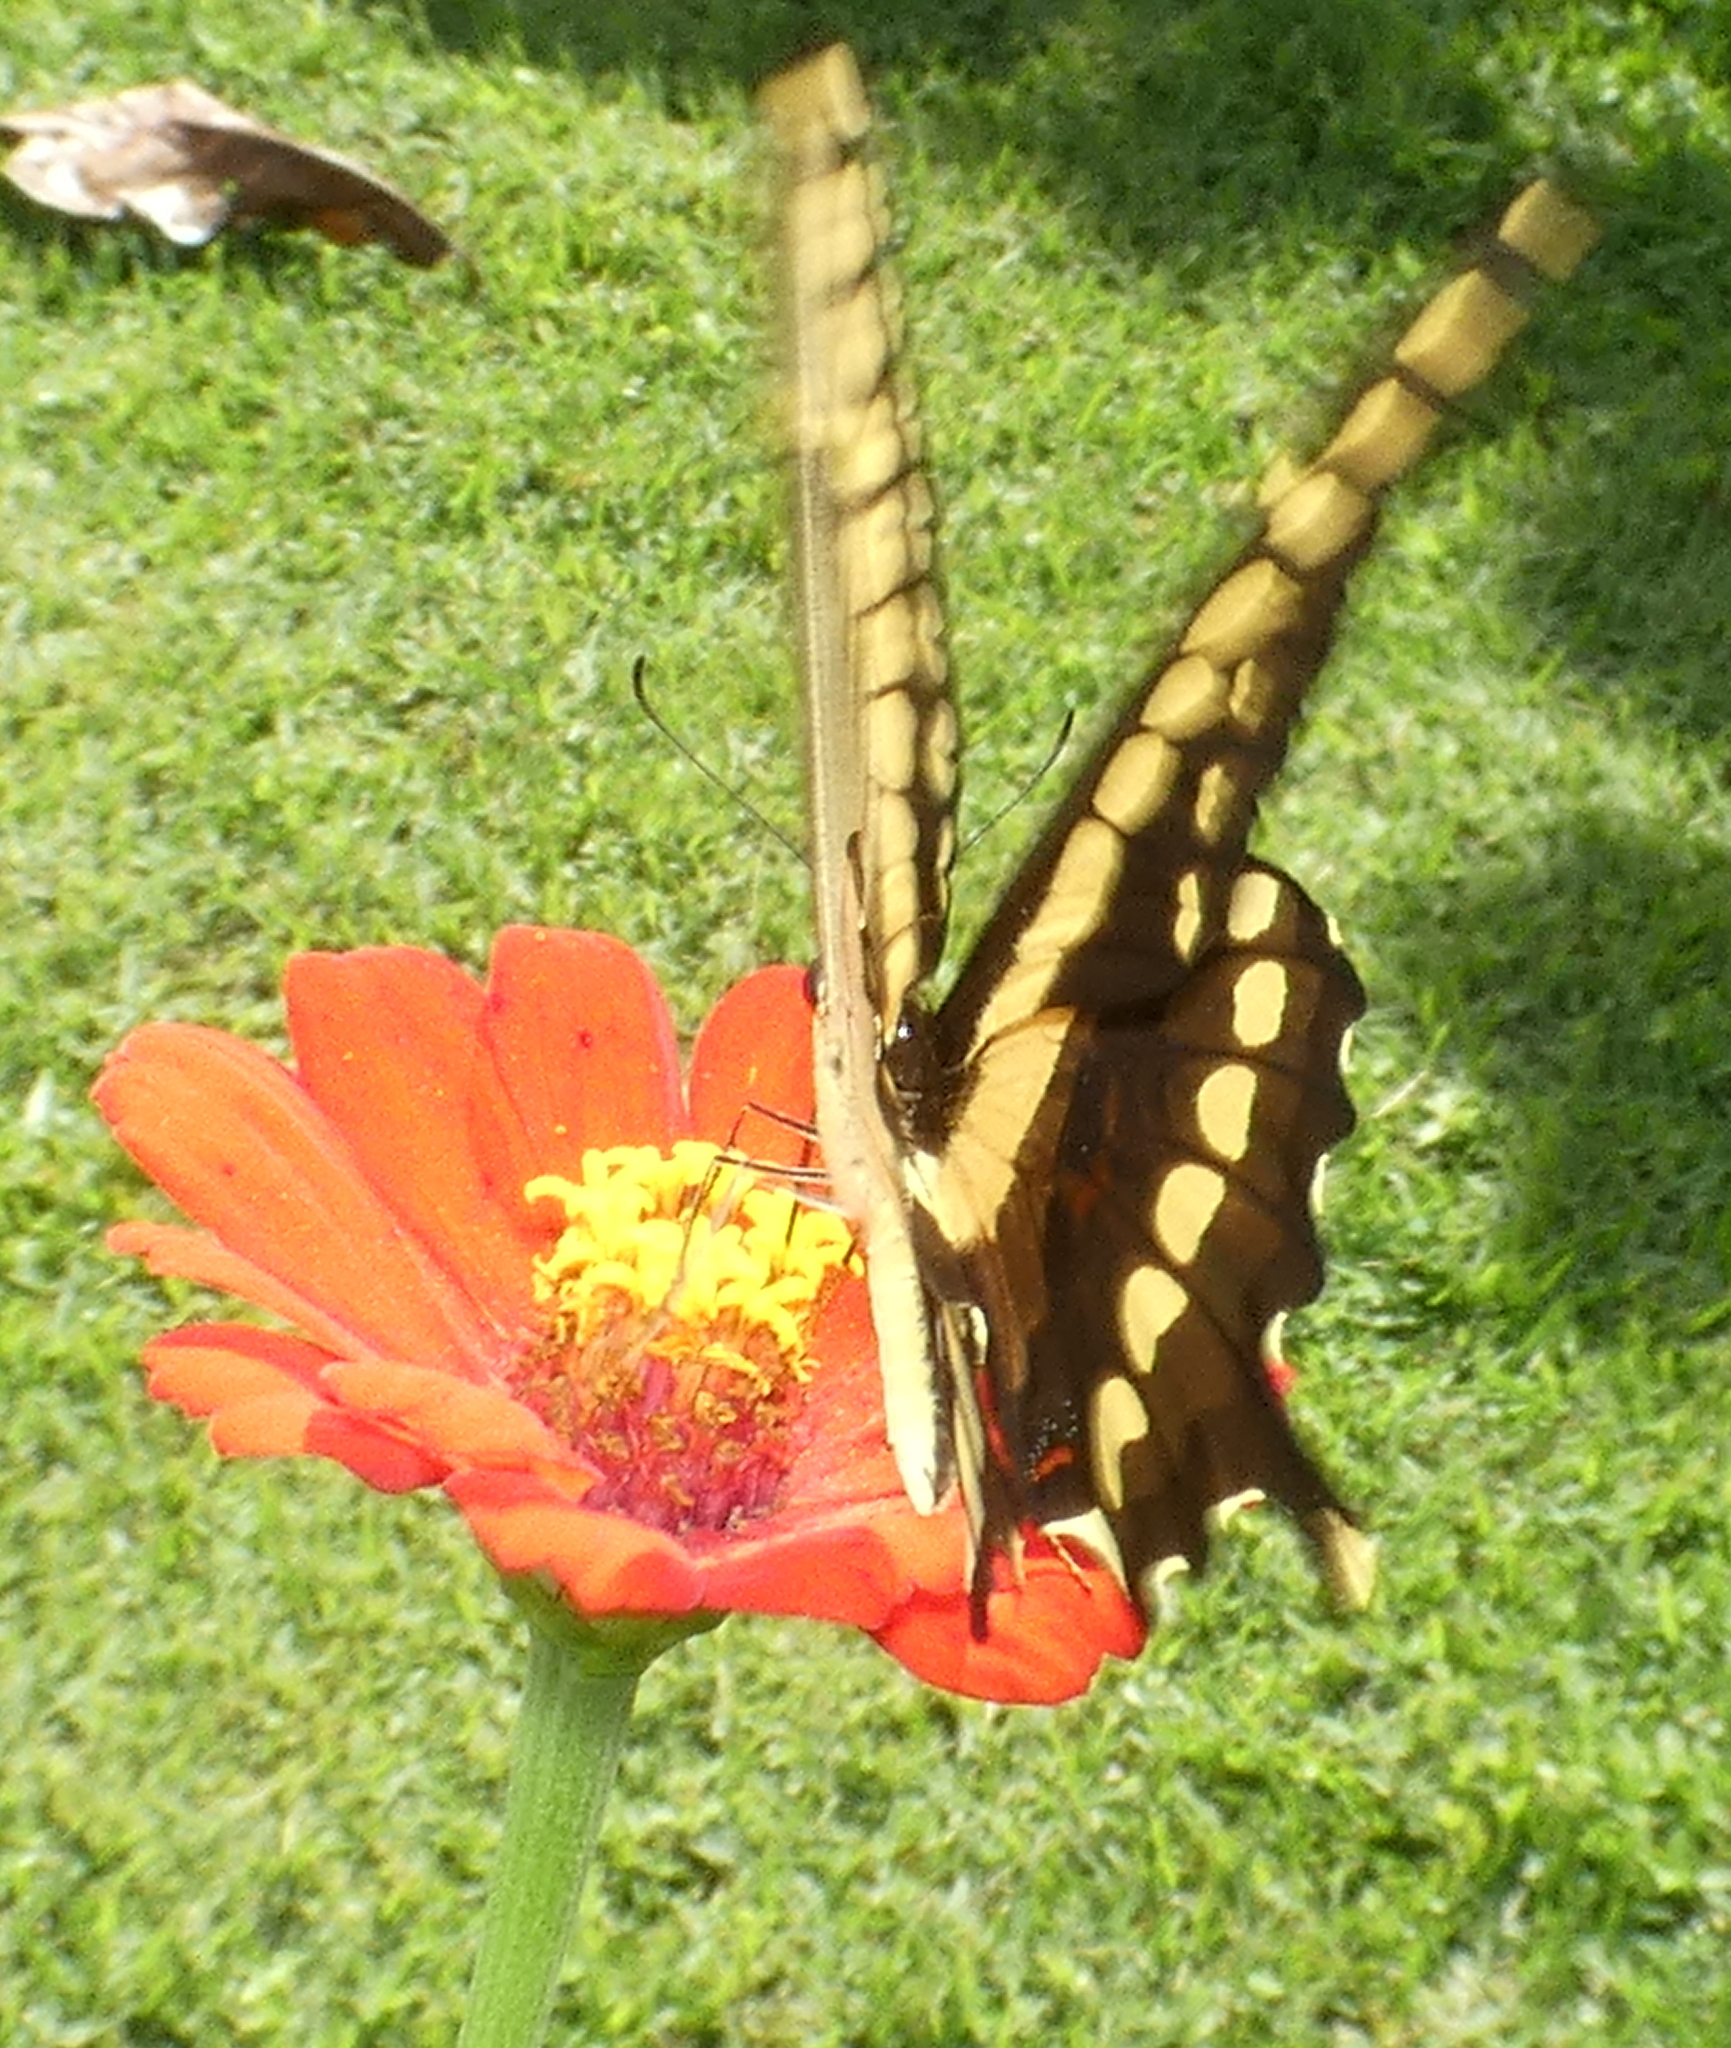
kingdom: Animalia
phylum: Arthropoda
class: Insecta
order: Lepidoptera
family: Papilionidae
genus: Papilio
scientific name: Papilio thoas
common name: King swallowtail
